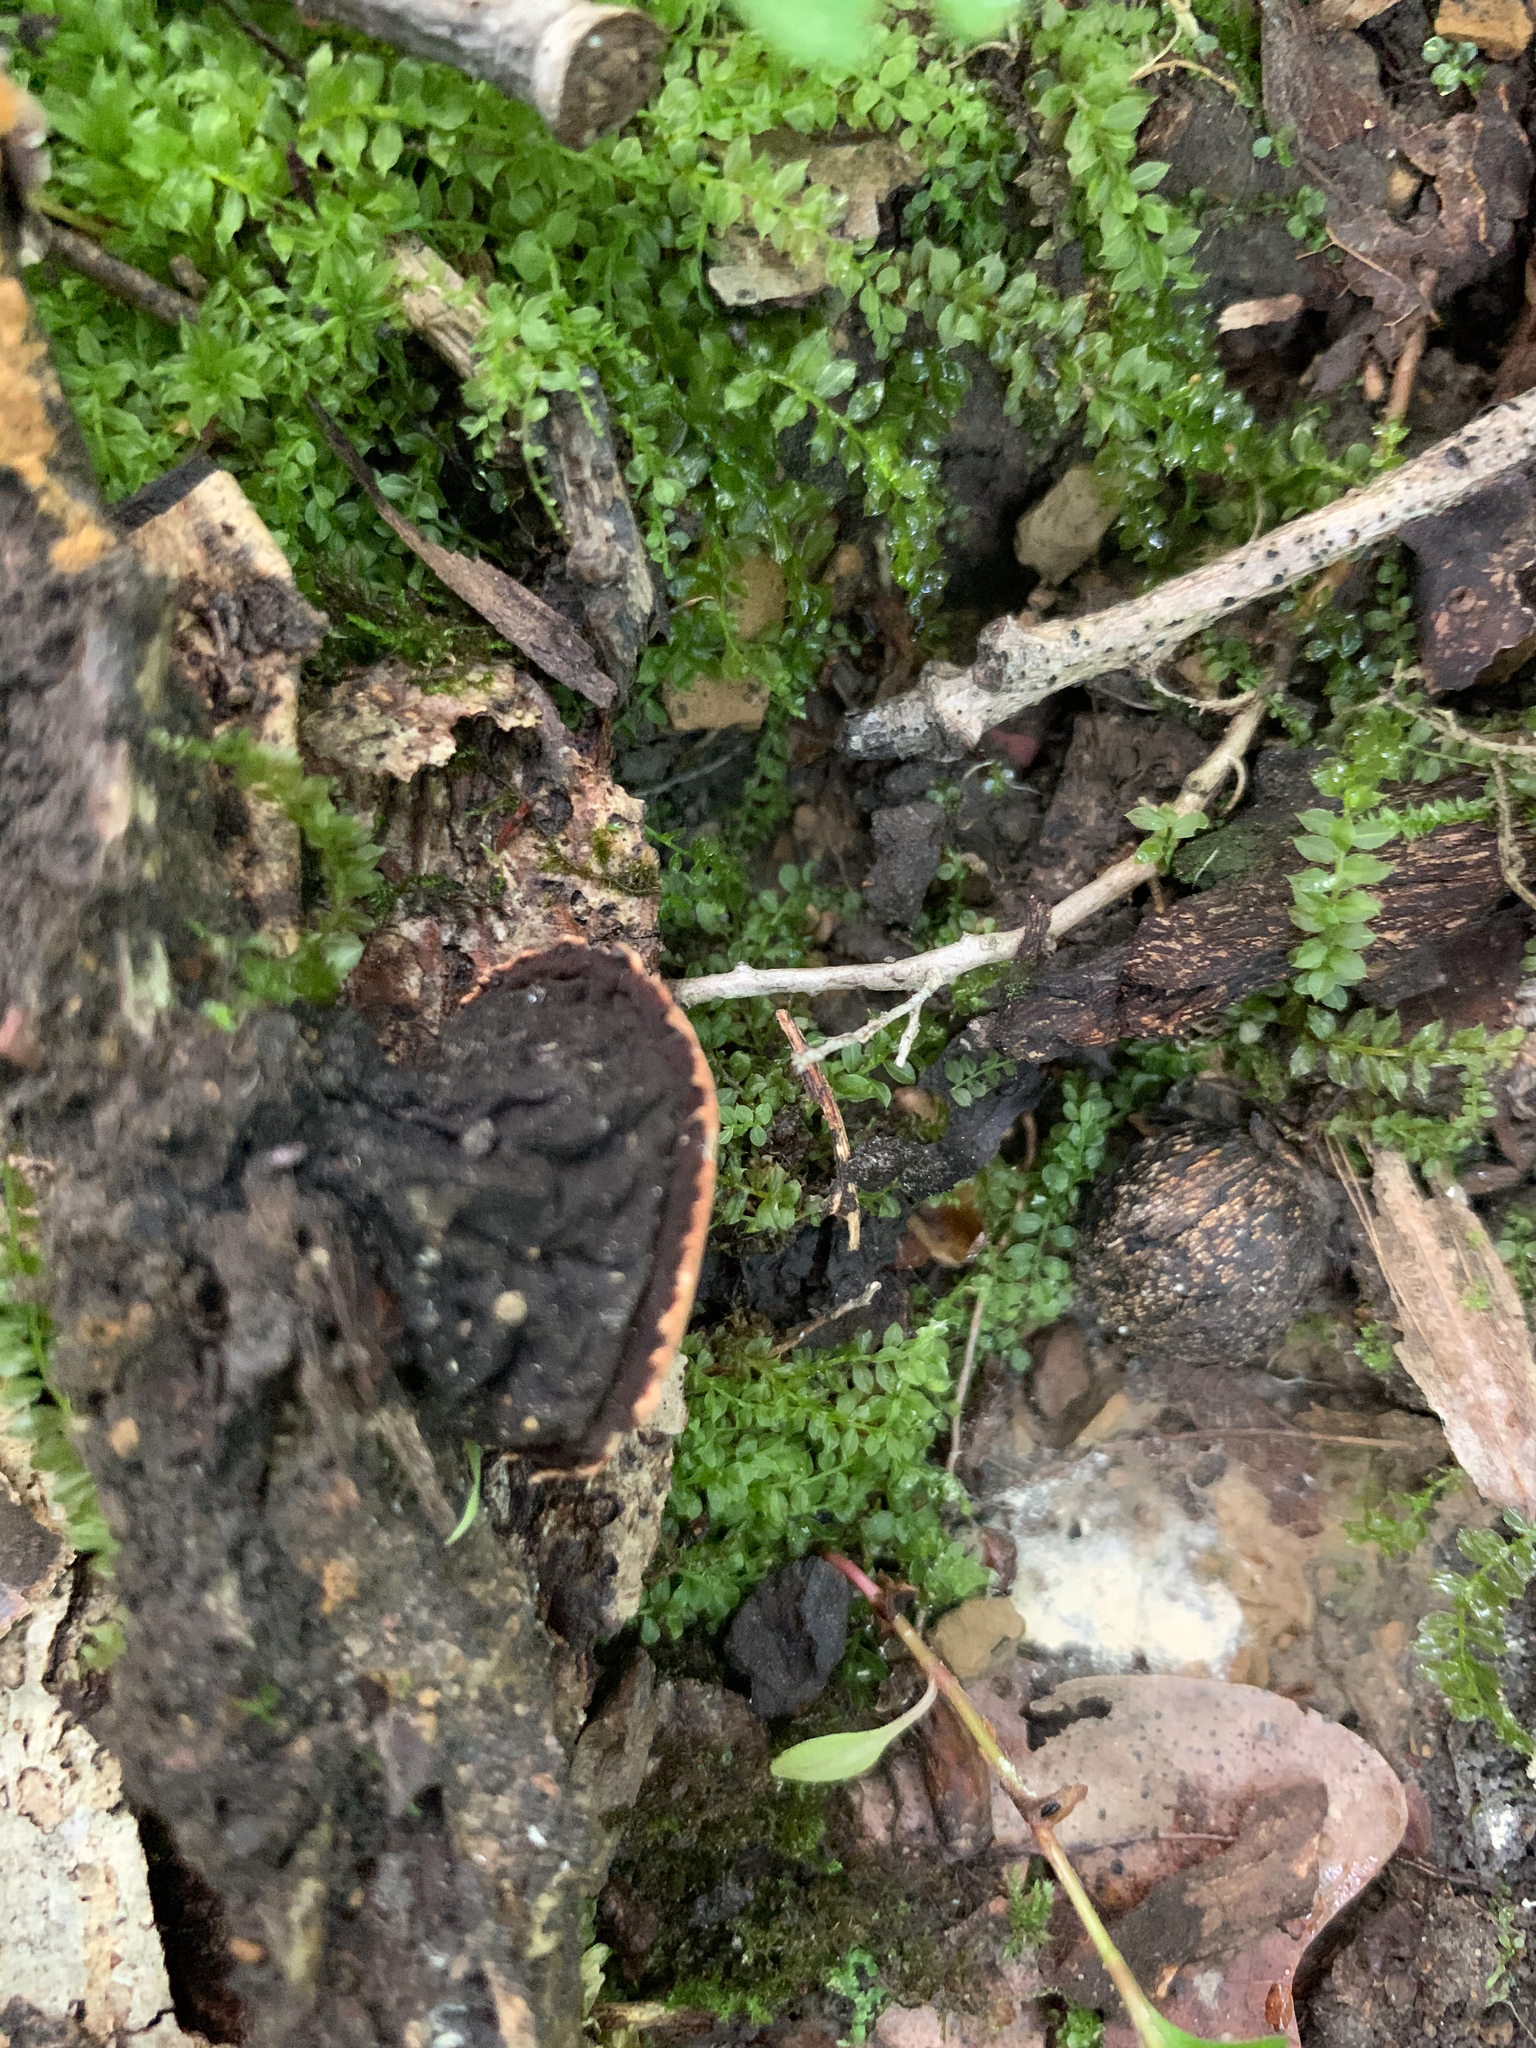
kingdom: Fungi
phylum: Ascomycota
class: Pezizomycetes
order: Pezizales
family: Sarcosomataceae
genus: Galiella
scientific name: Galiella rufa
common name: Hairy rubber cup
